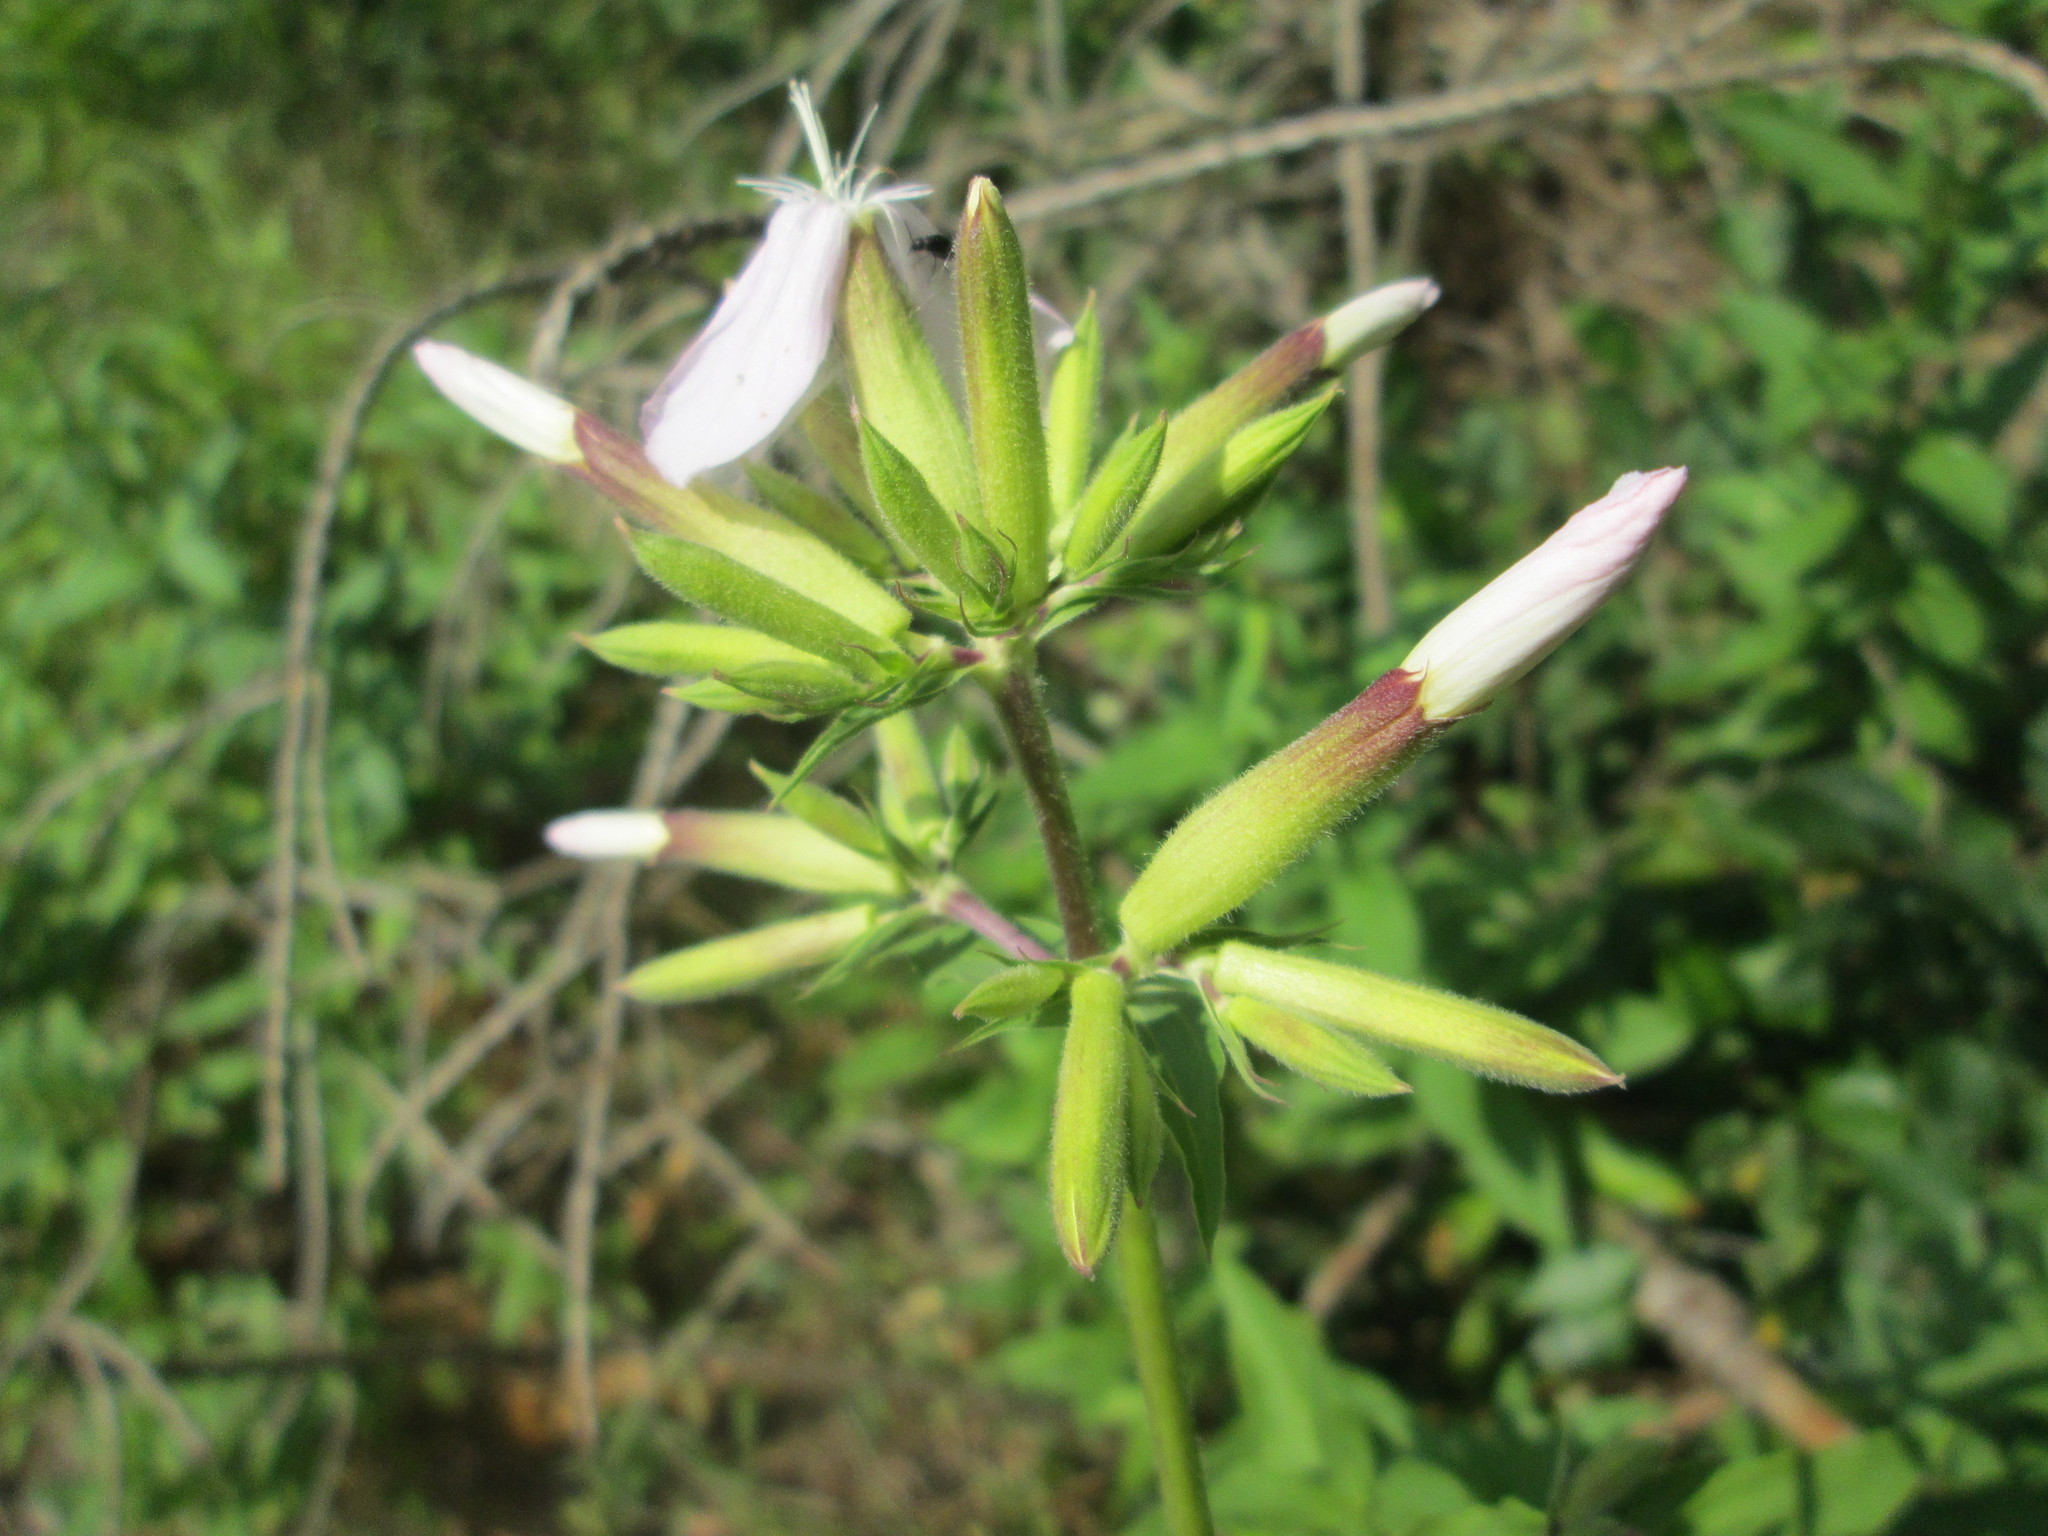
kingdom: Plantae
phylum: Tracheophyta
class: Magnoliopsida
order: Caryophyllales
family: Caryophyllaceae
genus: Saponaria
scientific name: Saponaria officinalis
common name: Soapwort
